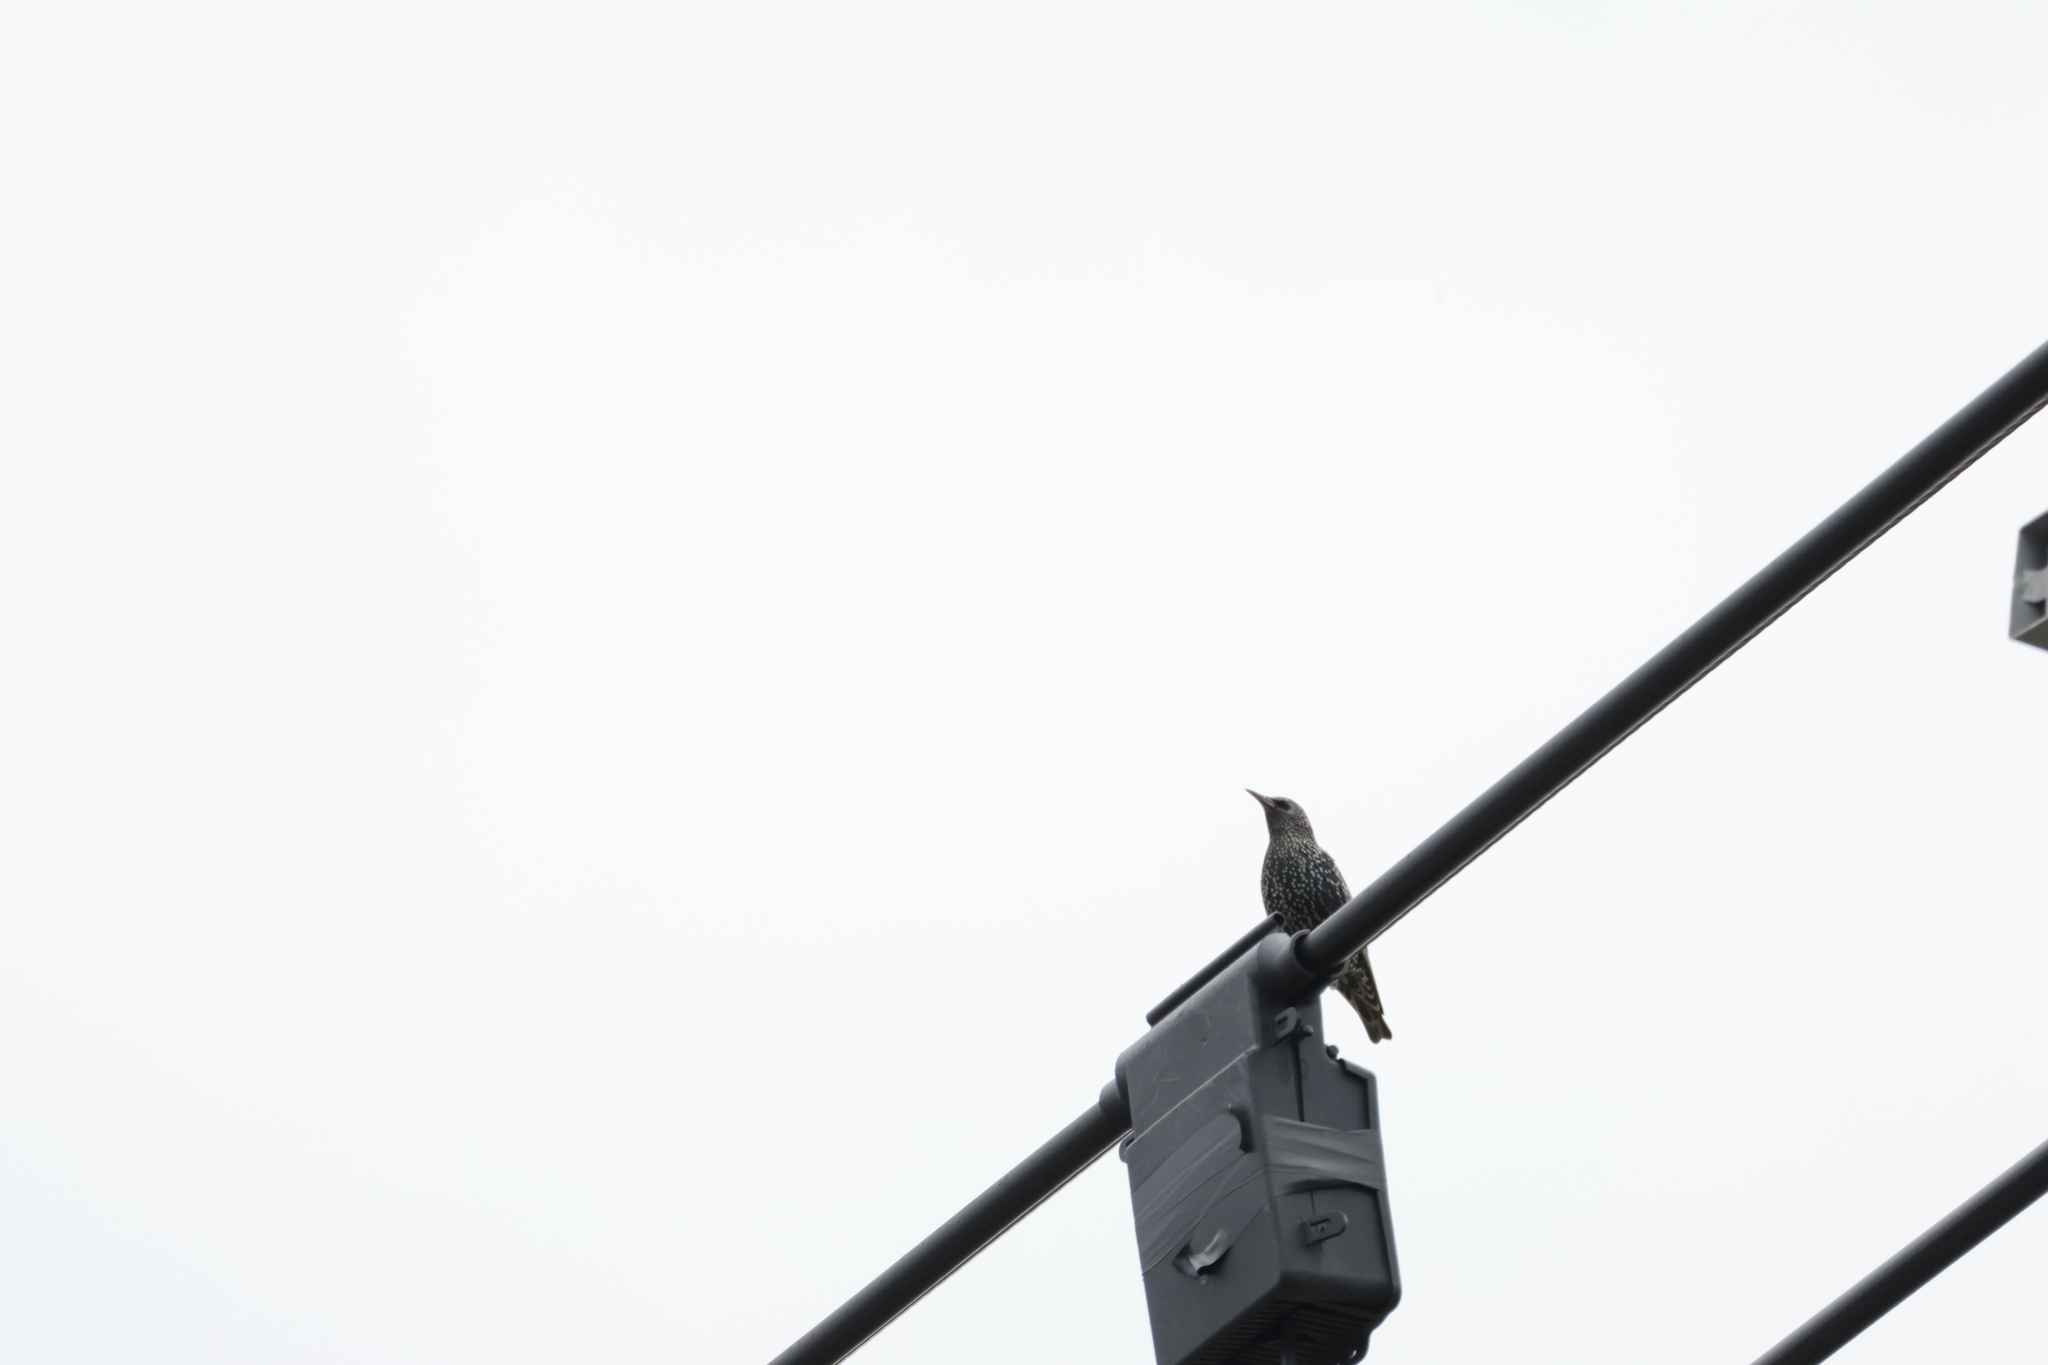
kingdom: Animalia
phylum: Chordata
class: Aves
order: Passeriformes
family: Sturnidae
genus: Sturnus
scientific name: Sturnus vulgaris
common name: Common starling
